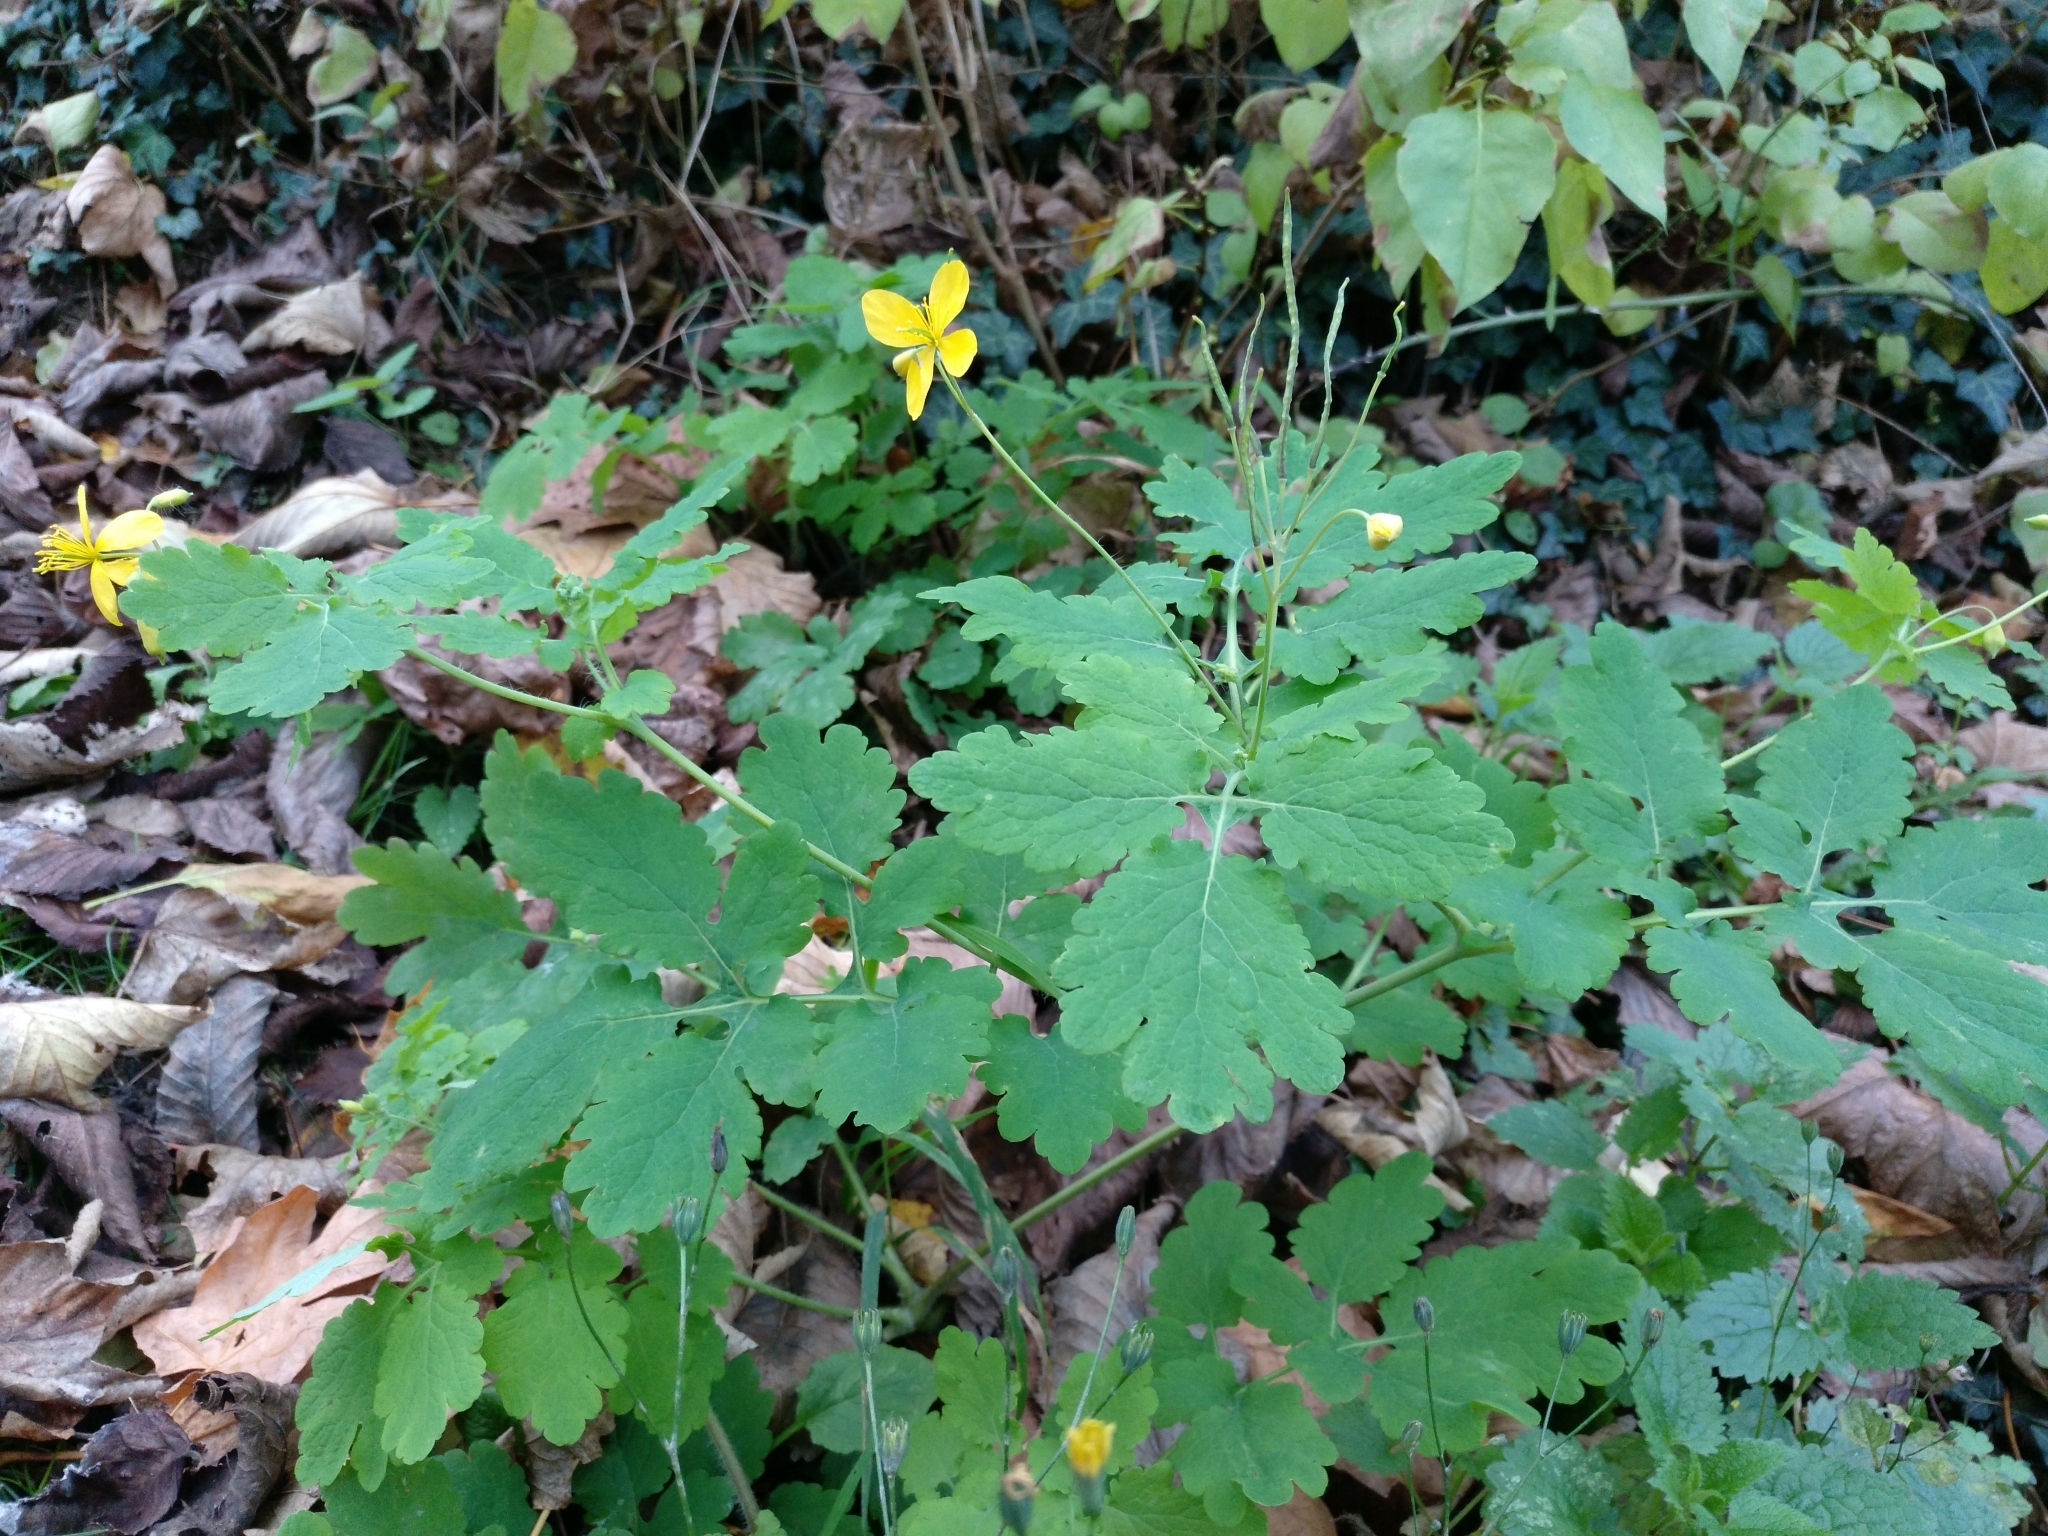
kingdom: Plantae
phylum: Tracheophyta
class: Magnoliopsida
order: Ranunculales
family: Papaveraceae
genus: Chelidonium
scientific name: Chelidonium majus
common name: Greater celandine
